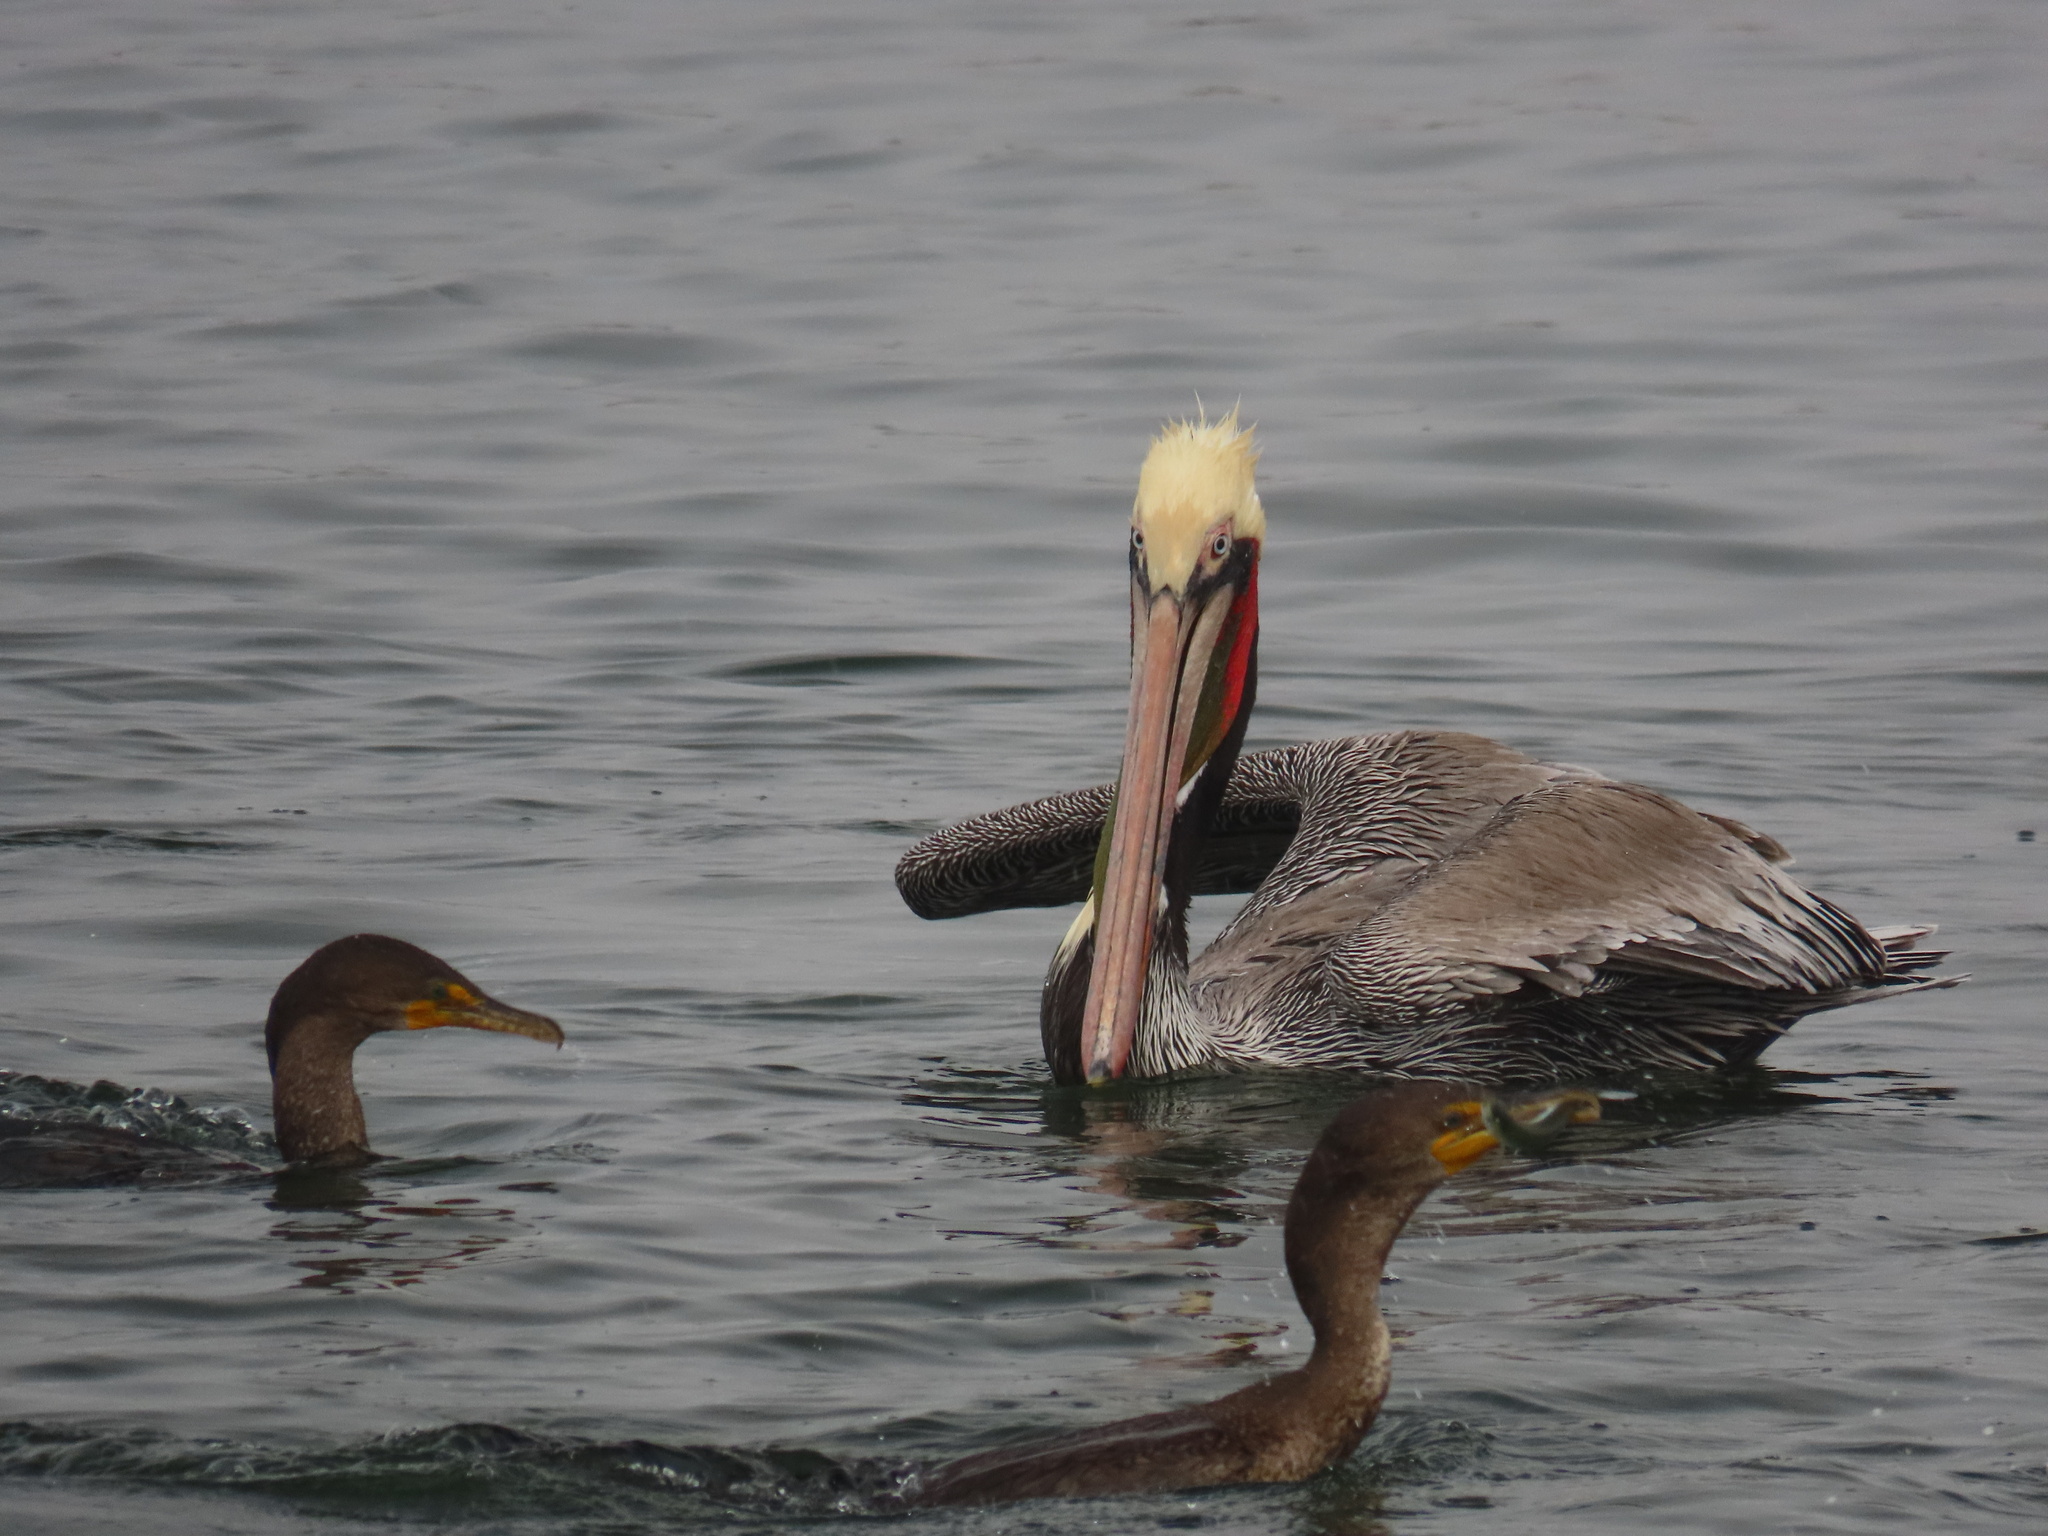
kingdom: Animalia
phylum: Chordata
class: Aves
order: Pelecaniformes
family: Pelecanidae
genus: Pelecanus
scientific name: Pelecanus occidentalis
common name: Brown pelican
